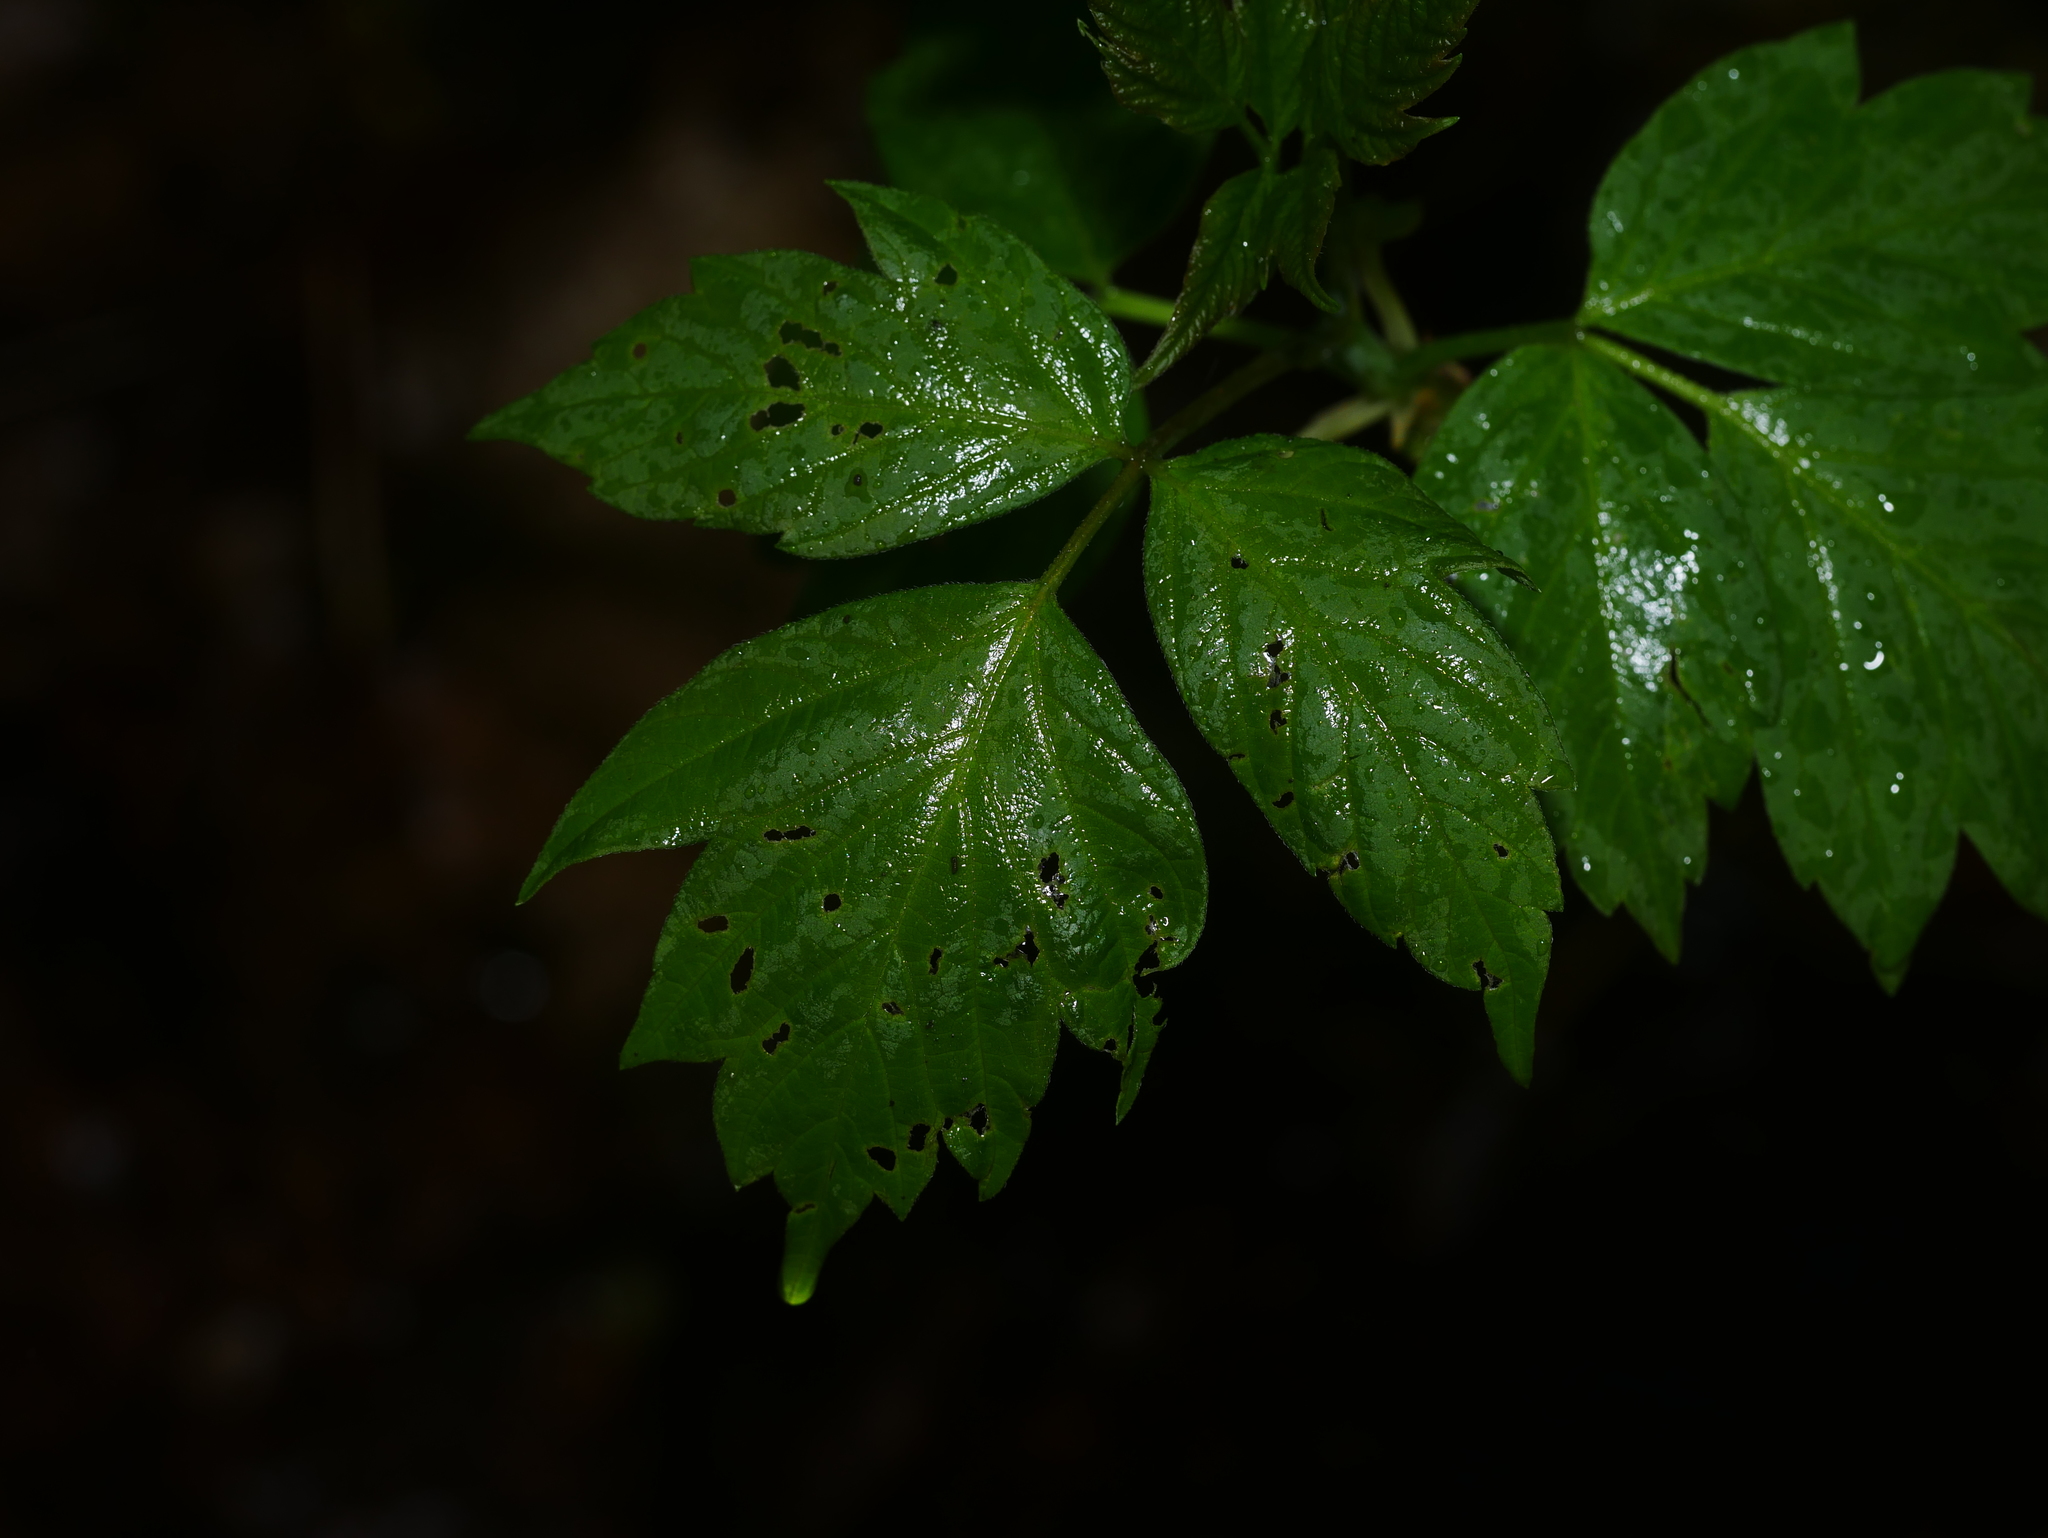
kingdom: Plantae
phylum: Tracheophyta
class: Magnoliopsida
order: Sapindales
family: Sapindaceae
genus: Acer
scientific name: Acer negundo
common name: Ashleaf maple
